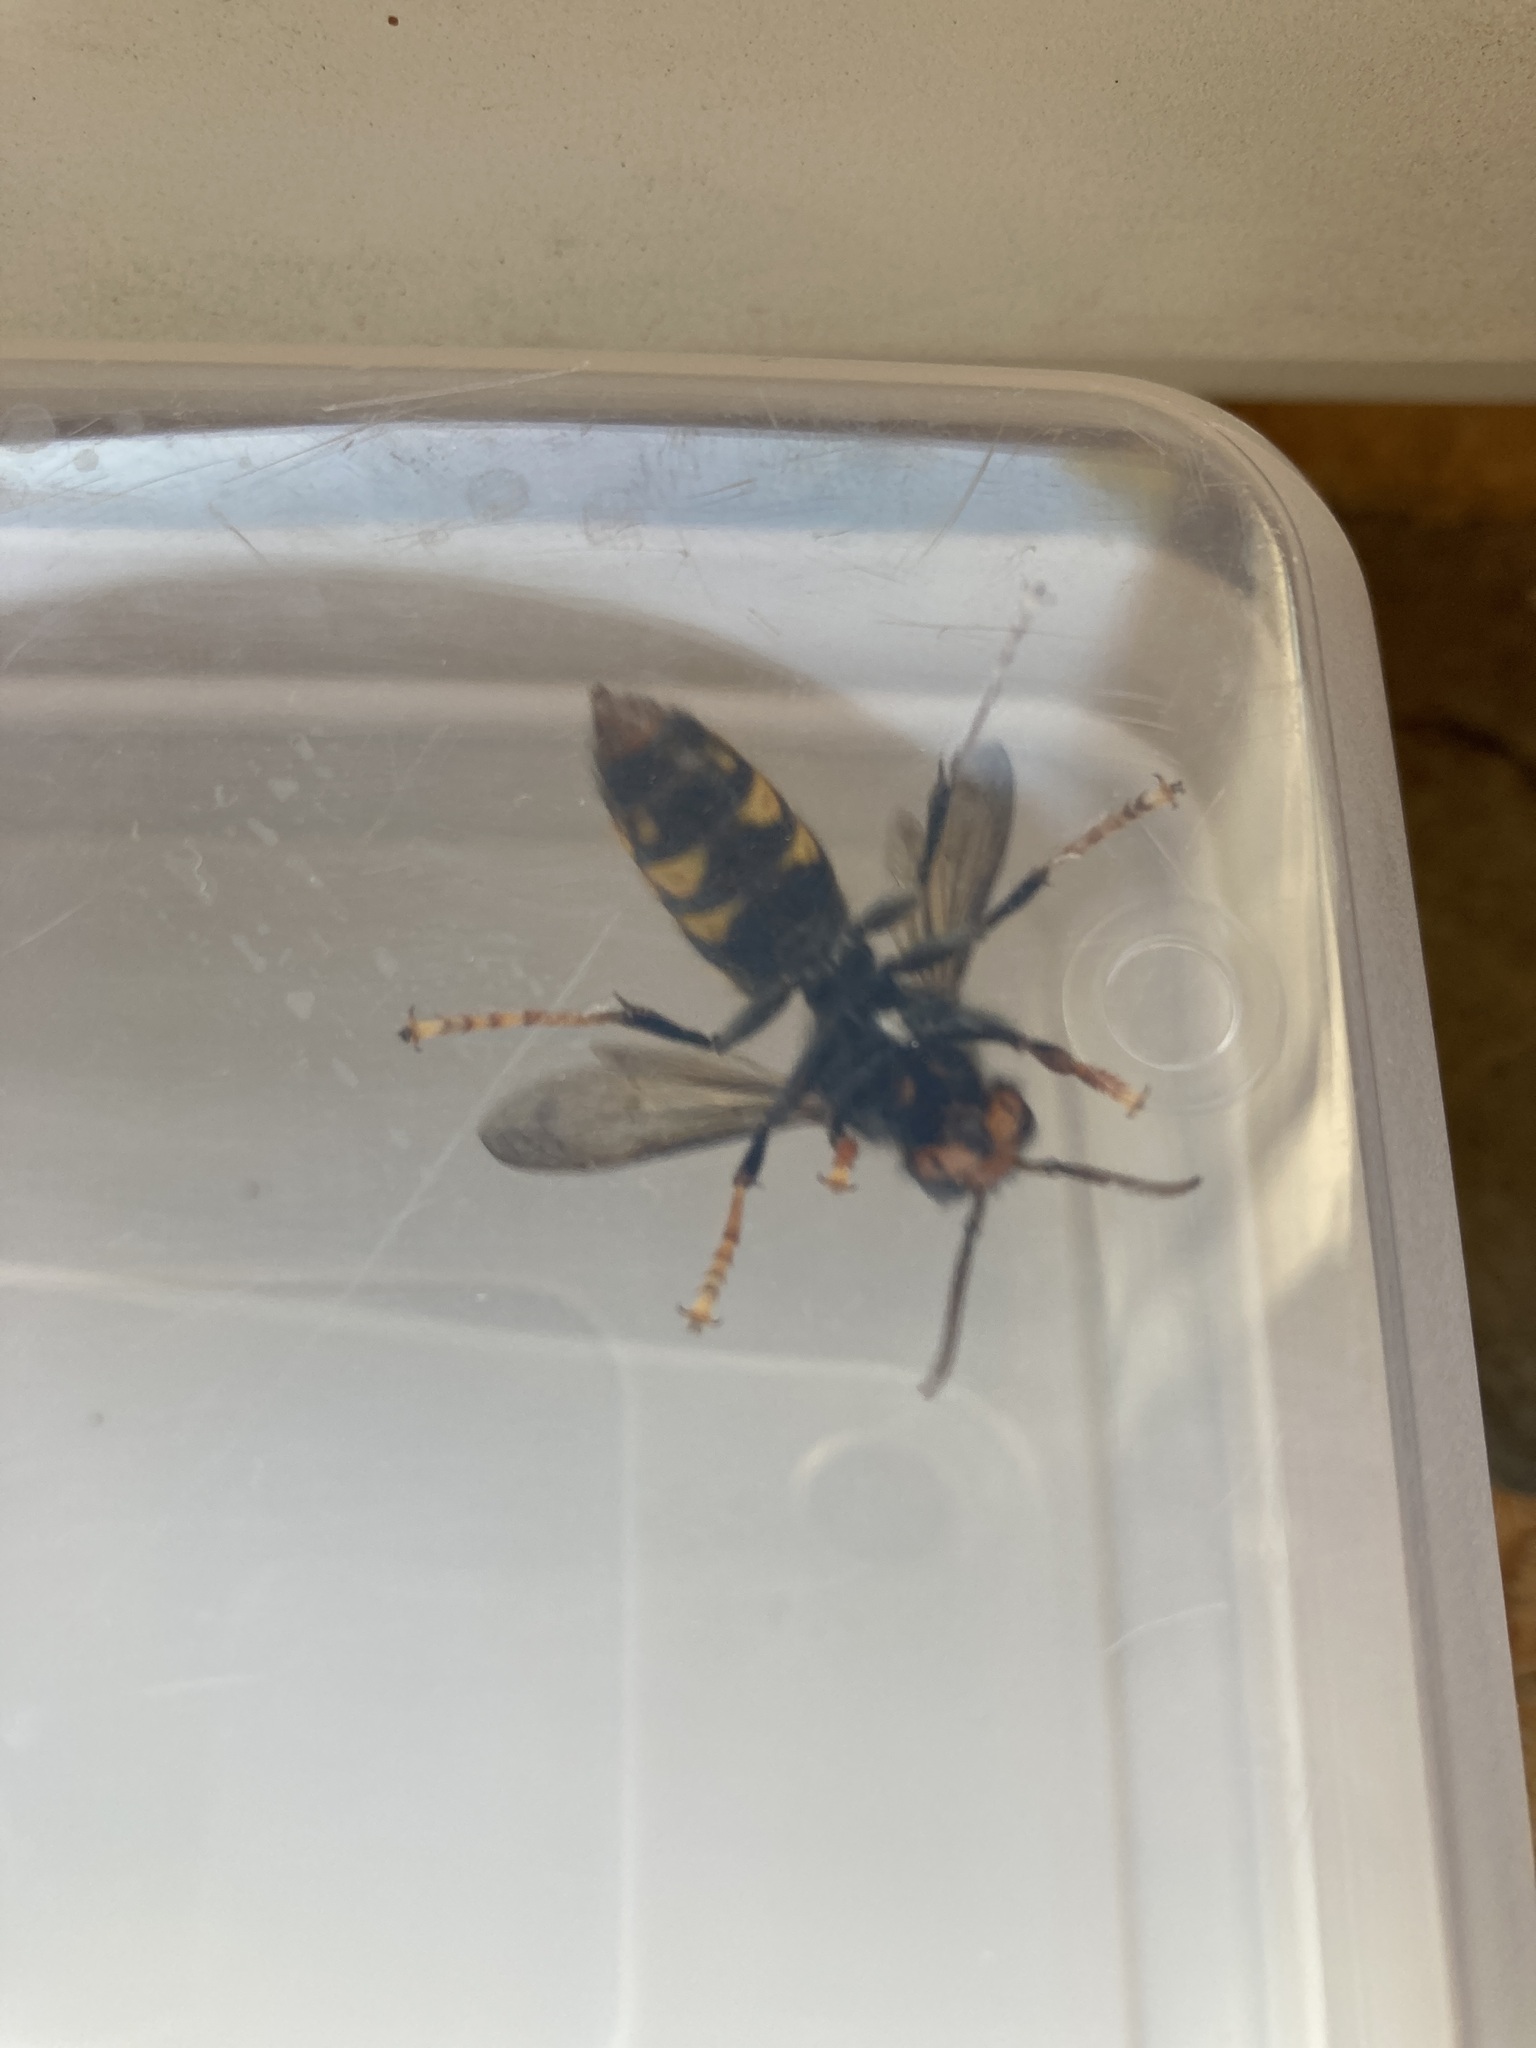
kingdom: Animalia
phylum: Arthropoda
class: Insecta
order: Hymenoptera
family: Vespidae
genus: Vespa
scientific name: Vespa velutina
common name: Asian hornet
